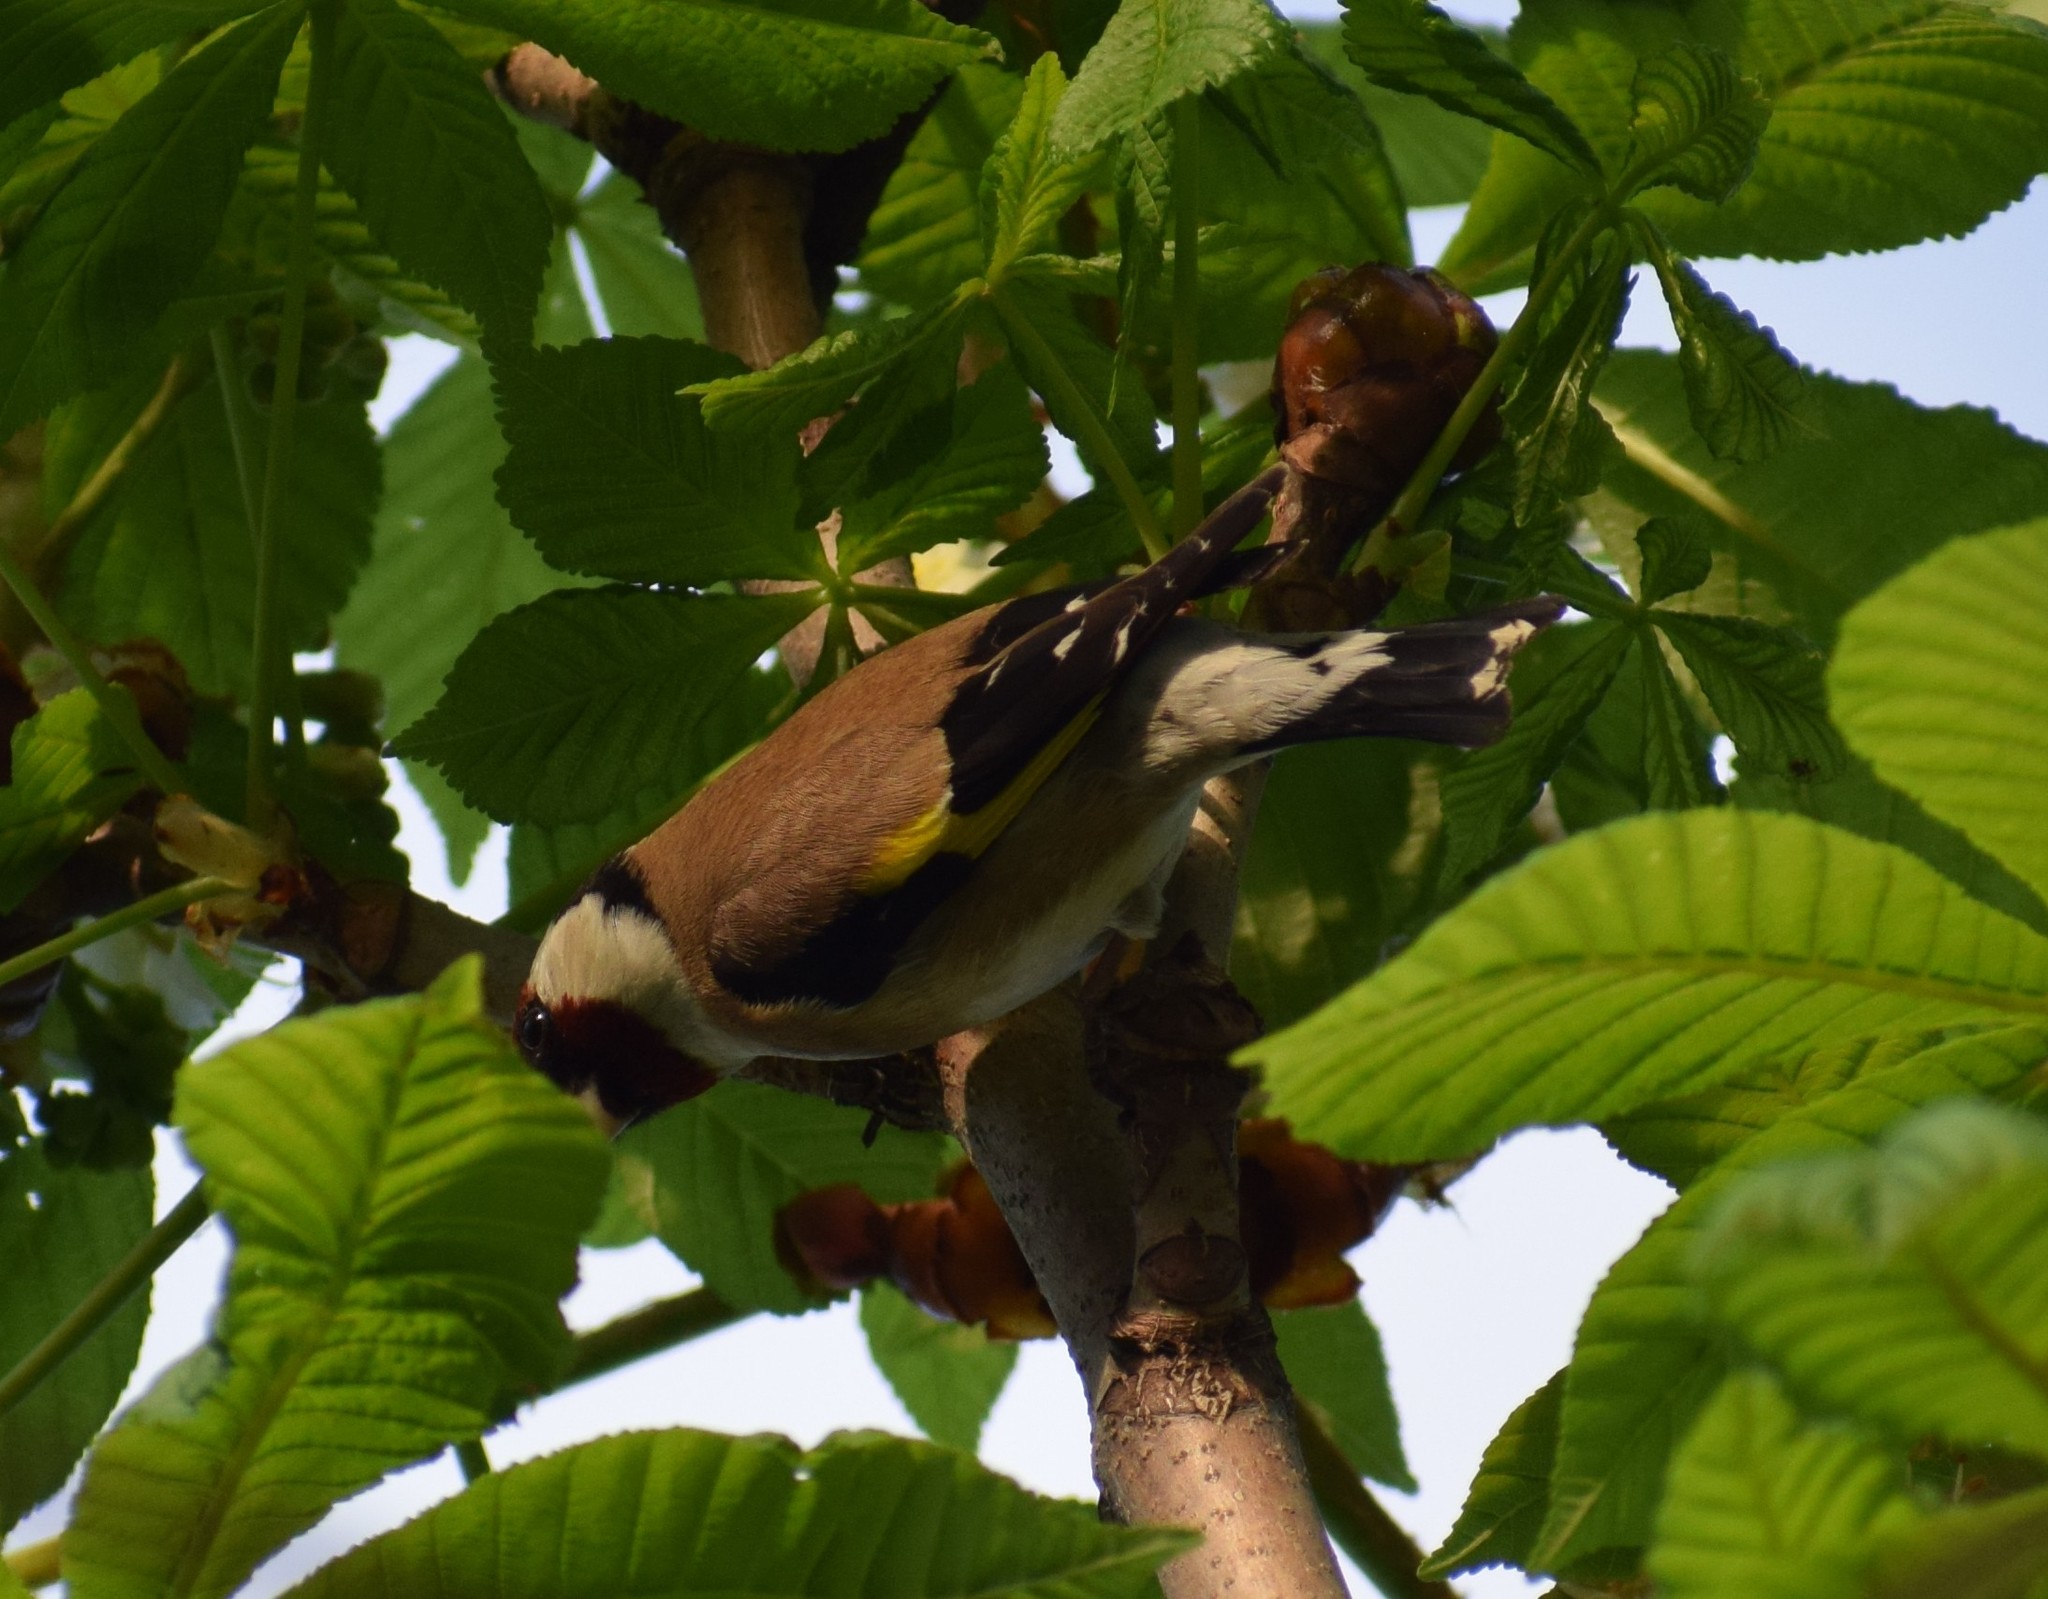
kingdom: Animalia
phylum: Chordata
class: Aves
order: Passeriformes
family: Fringillidae
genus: Carduelis
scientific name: Carduelis carduelis
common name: European goldfinch
